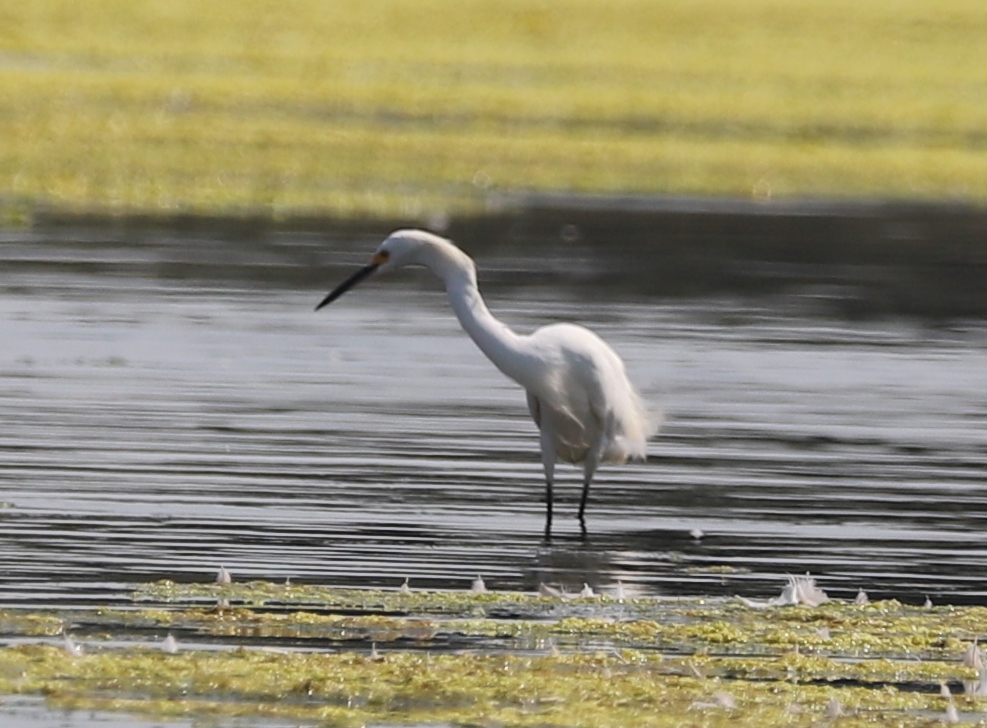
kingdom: Animalia
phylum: Chordata
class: Aves
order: Pelecaniformes
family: Ardeidae
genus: Egretta
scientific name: Egretta thula
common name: Snowy egret
